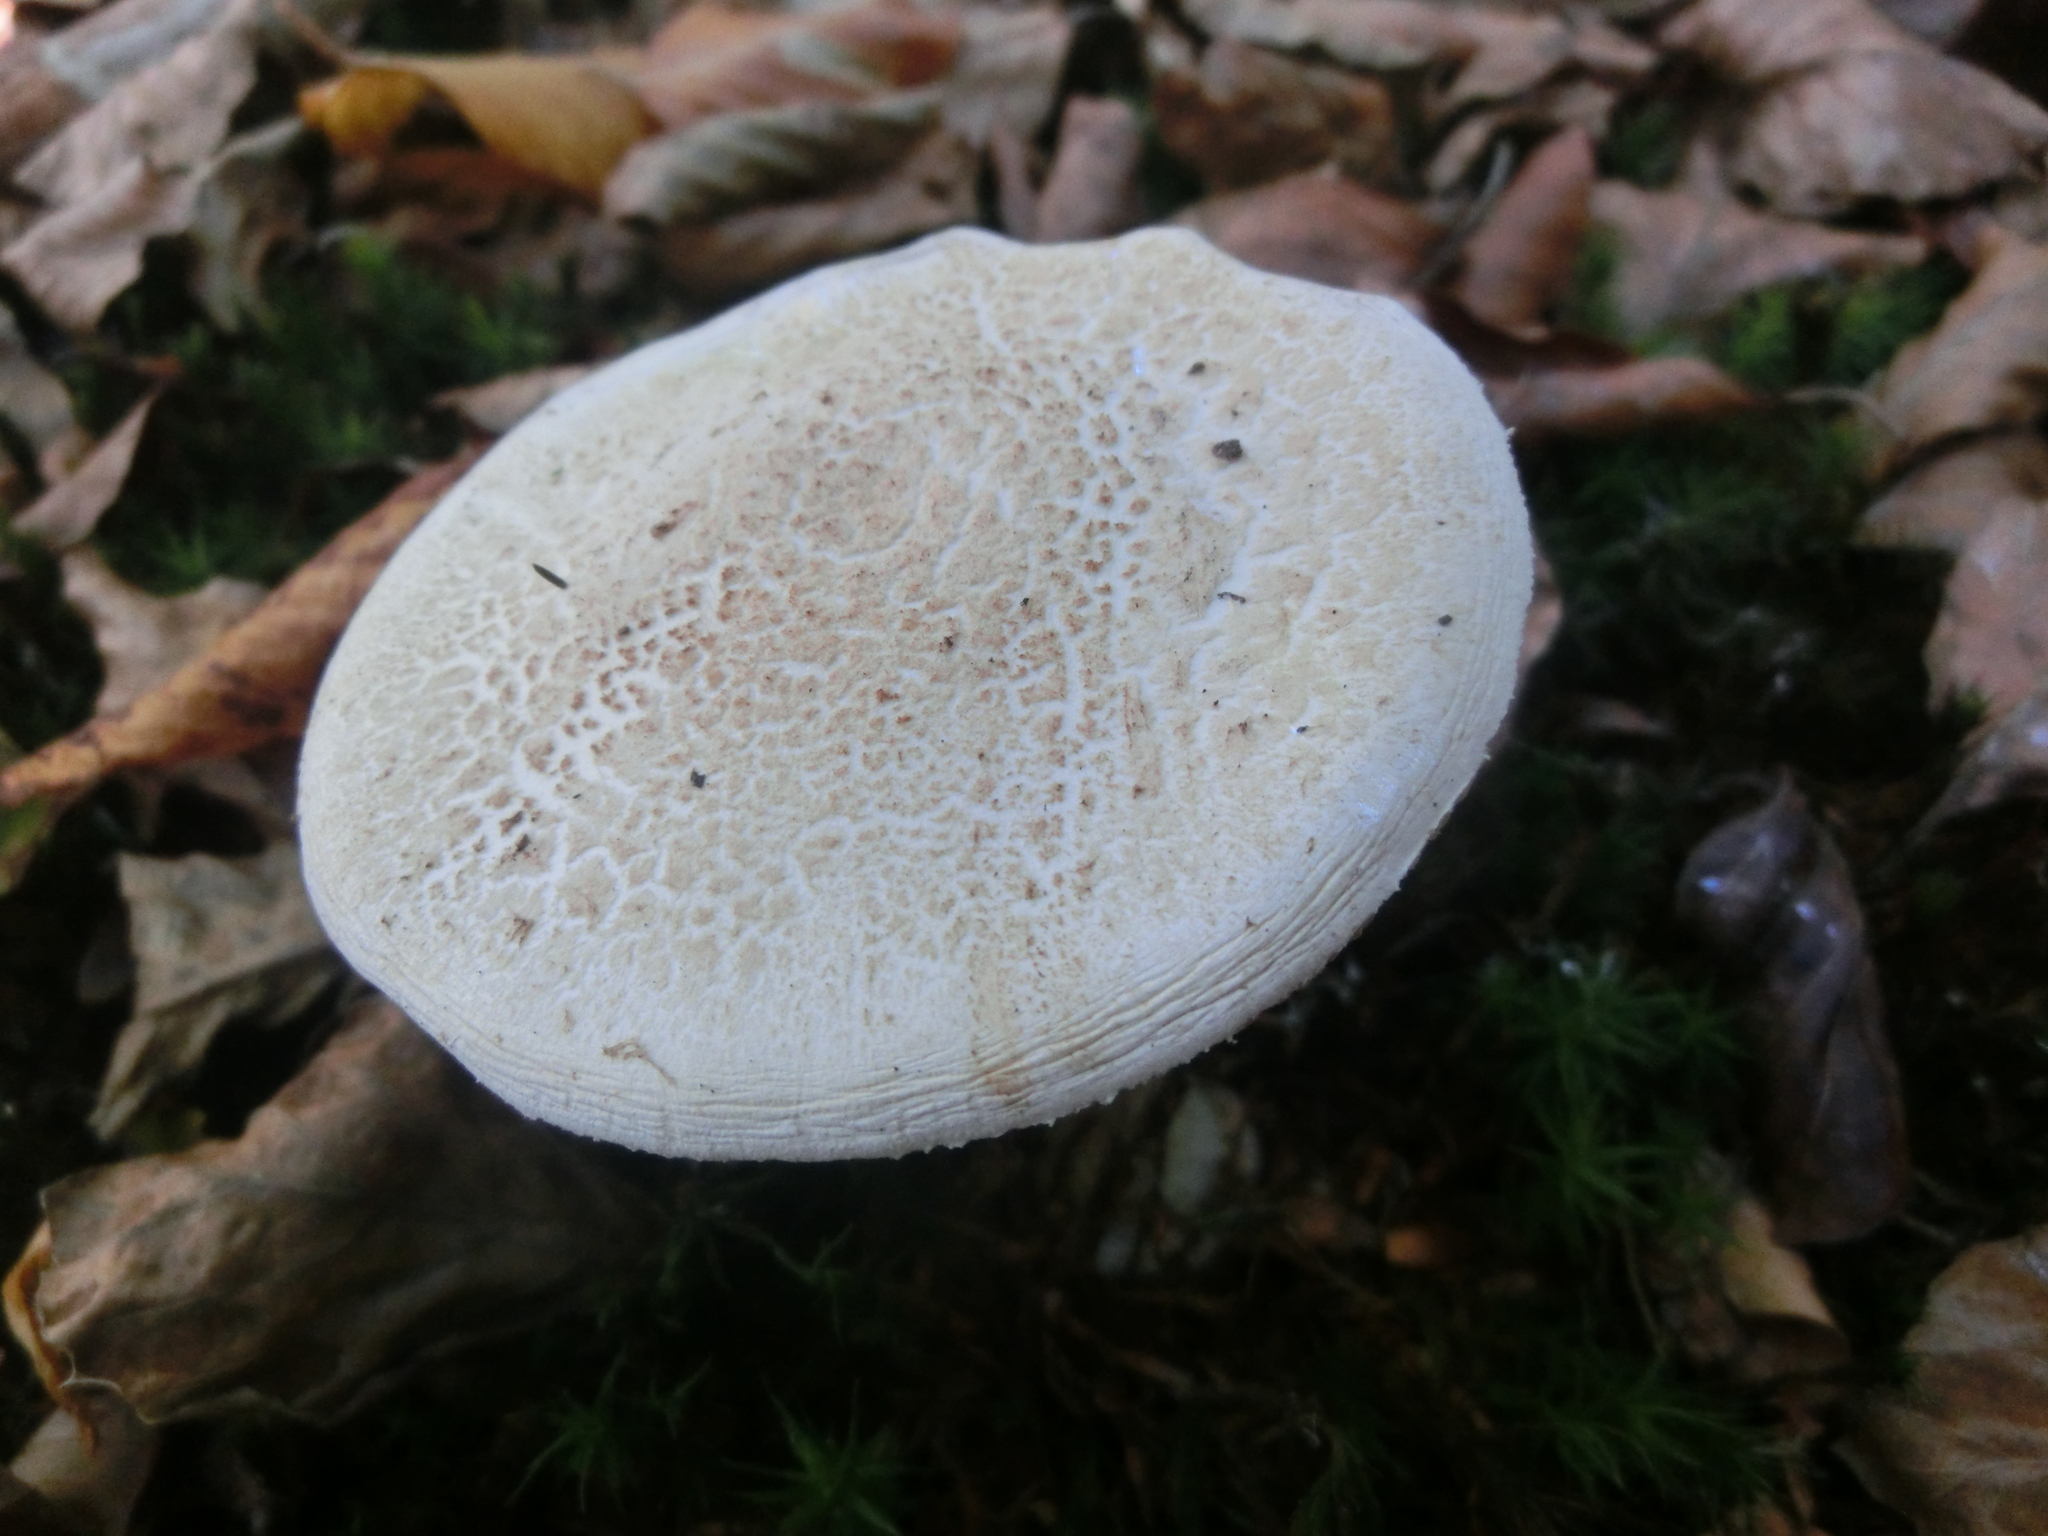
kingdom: Fungi
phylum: Basidiomycota
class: Agaricomycetes
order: Agaricales
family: Amanitaceae
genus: Amanita
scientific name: Amanita citrina
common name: False death-cap
